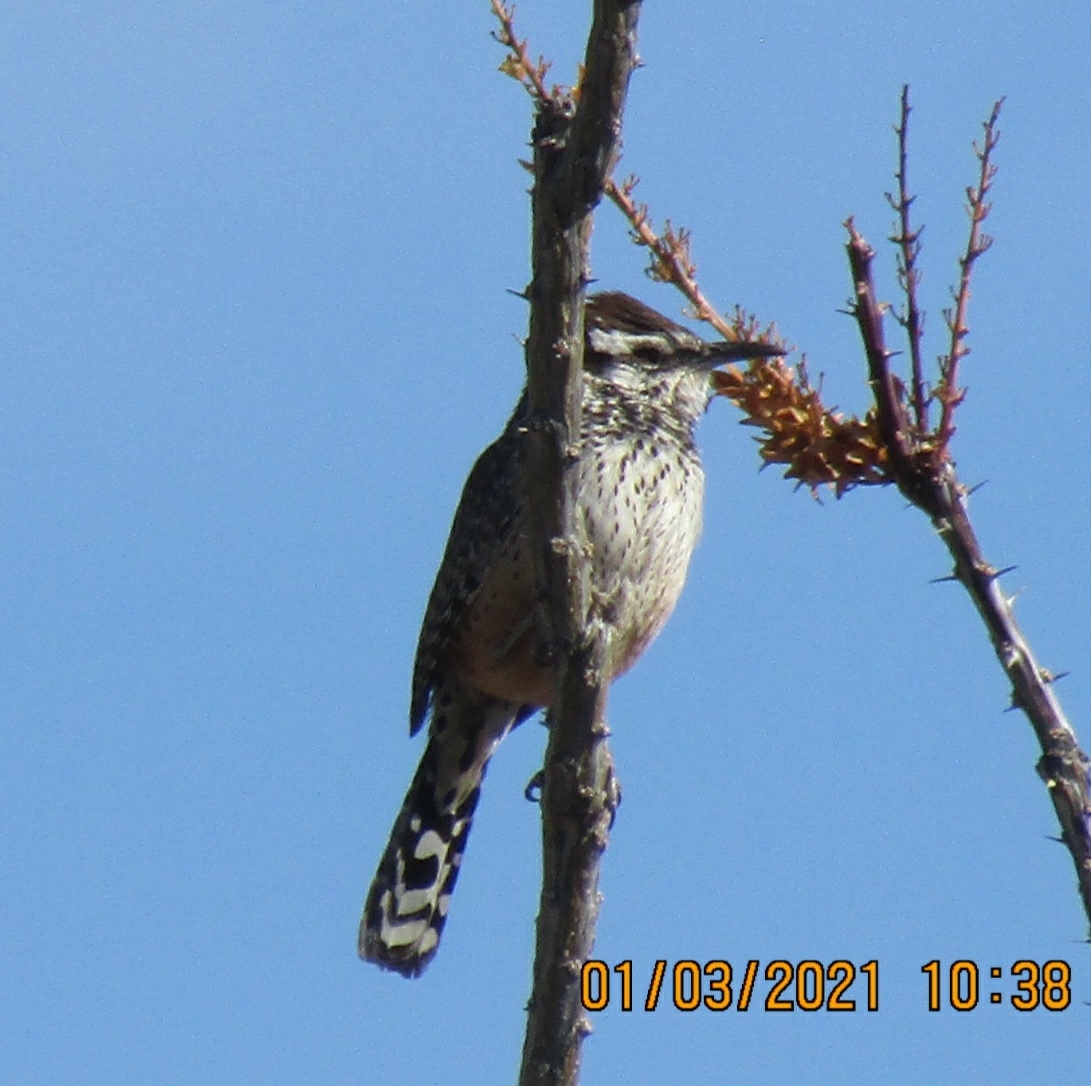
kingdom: Animalia
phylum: Chordata
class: Aves
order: Passeriformes
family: Troglodytidae
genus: Campylorhynchus
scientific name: Campylorhynchus brunneicapillus
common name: Cactus wren
